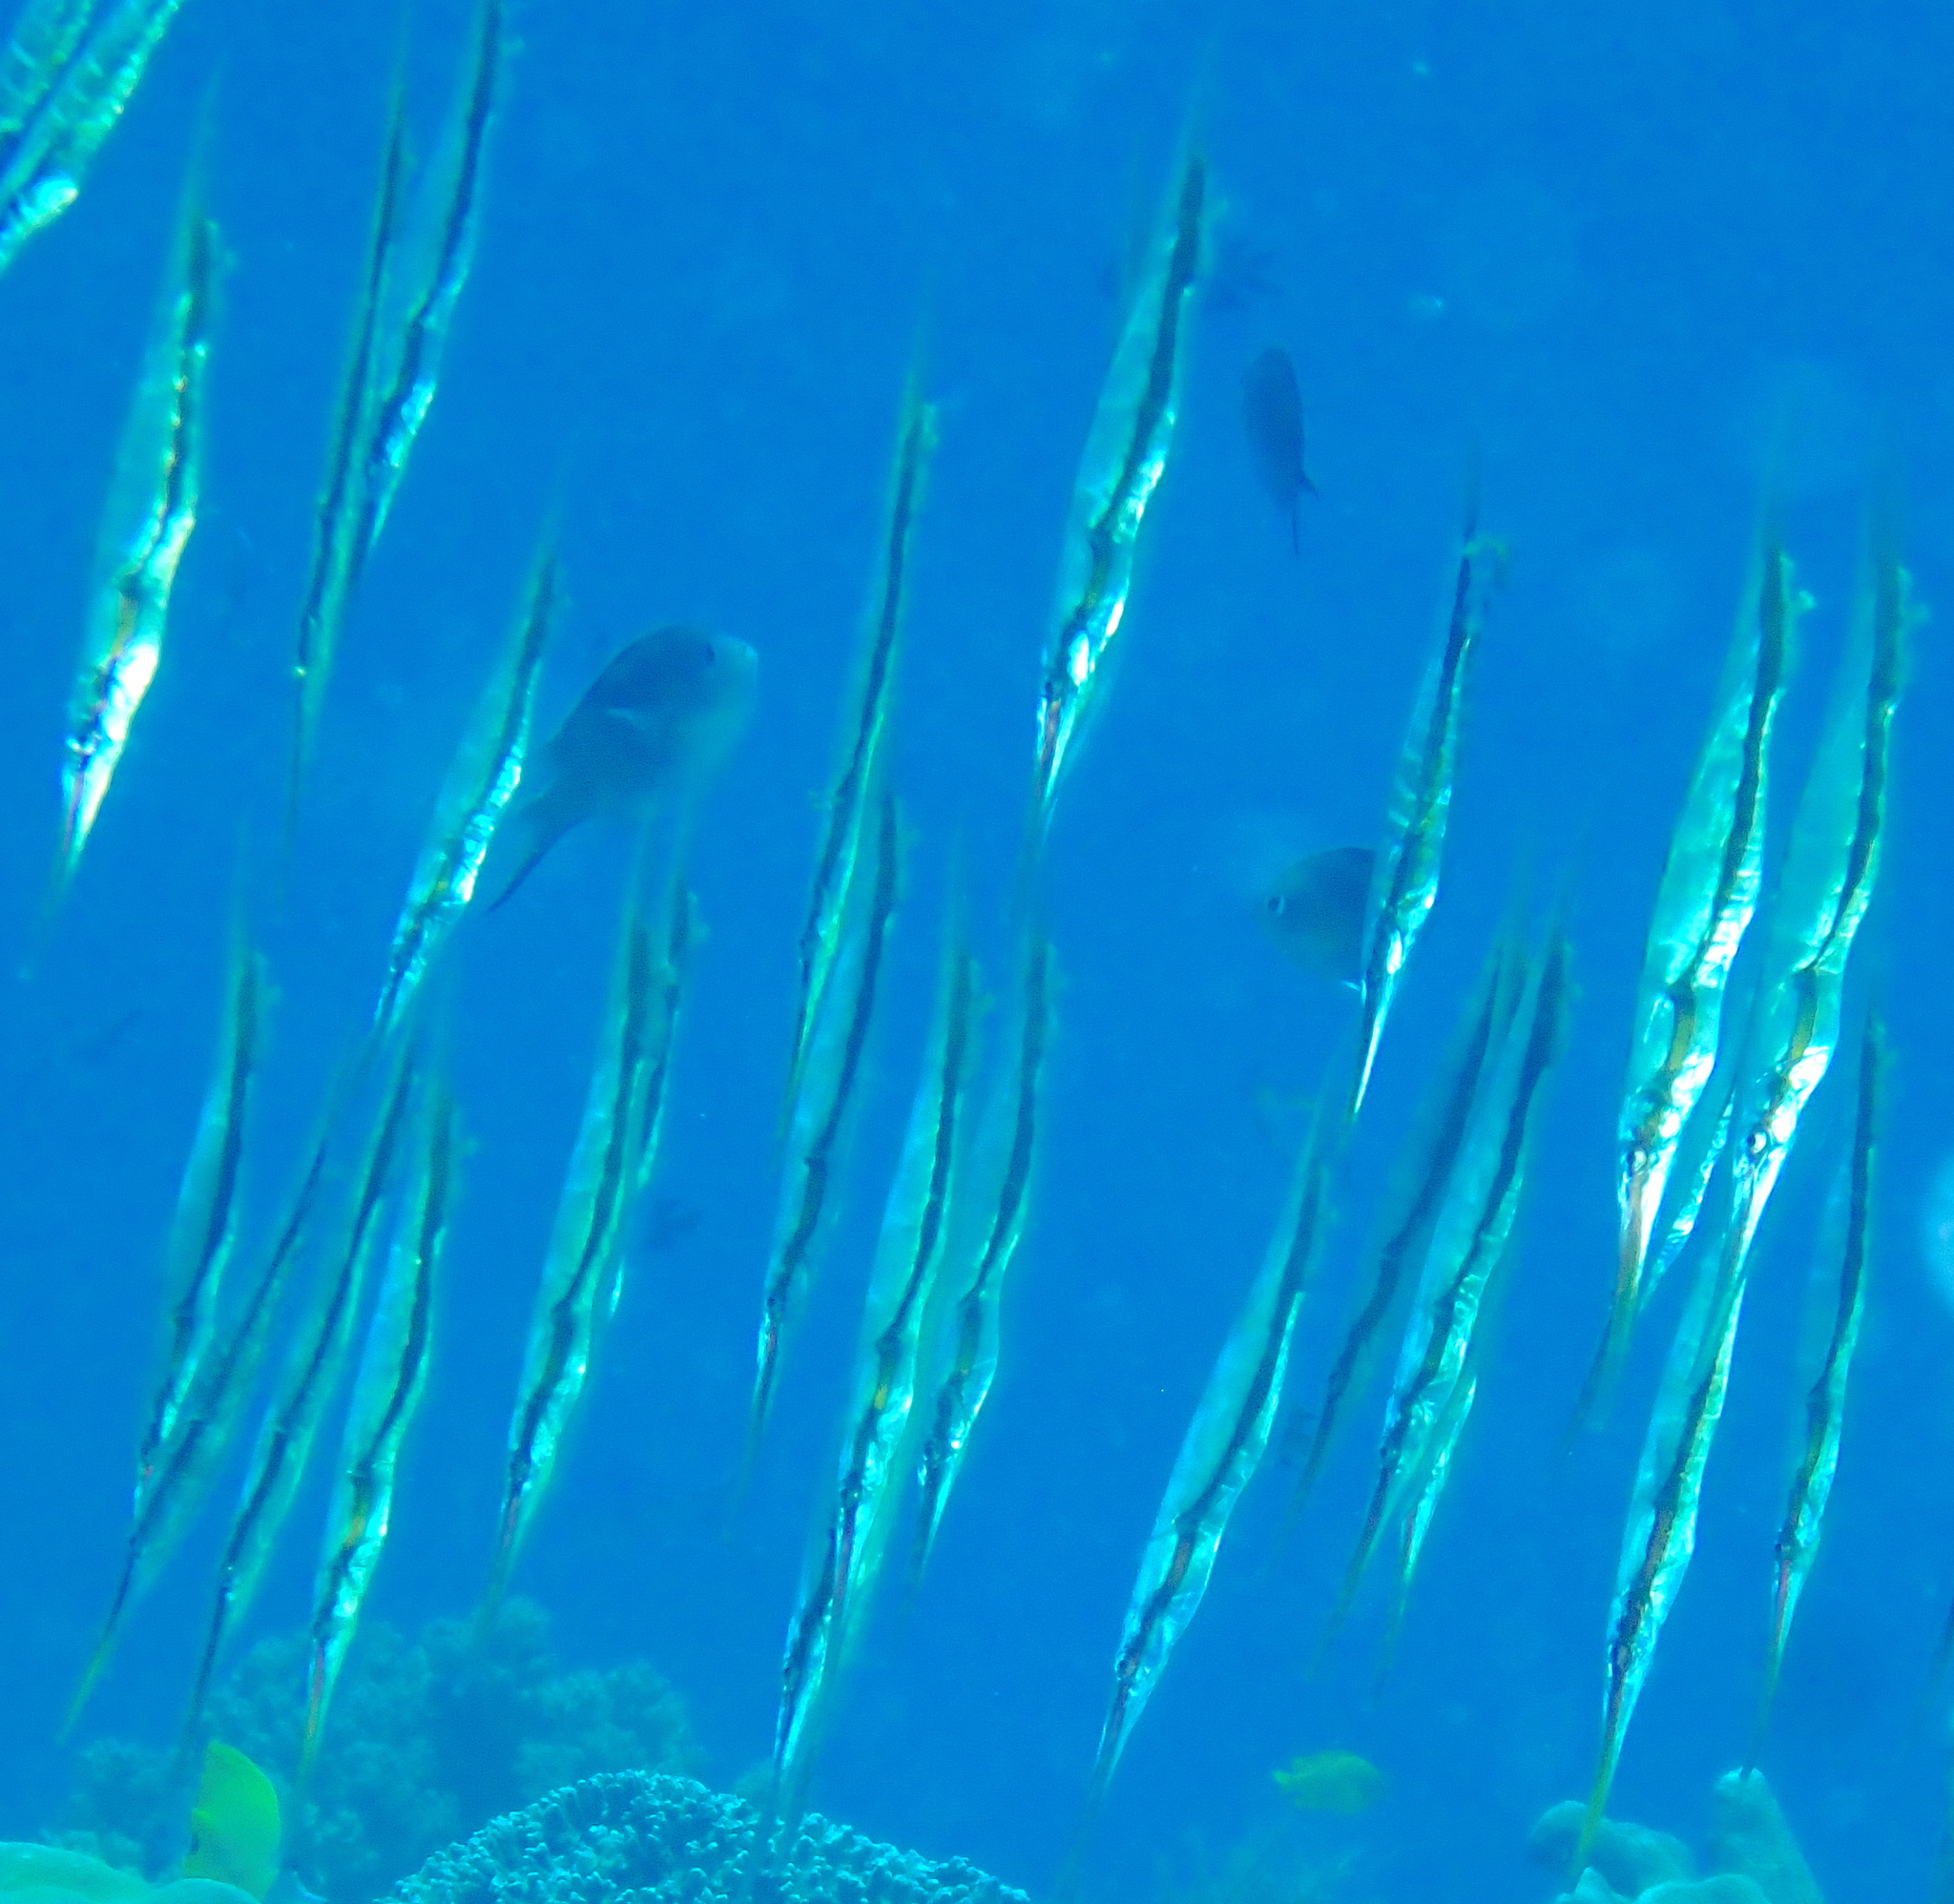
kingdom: Animalia
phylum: Chordata
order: Syngnathiformes
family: Centriscidae
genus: Aeoliscus
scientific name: Aeoliscus strigatus
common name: Canif
